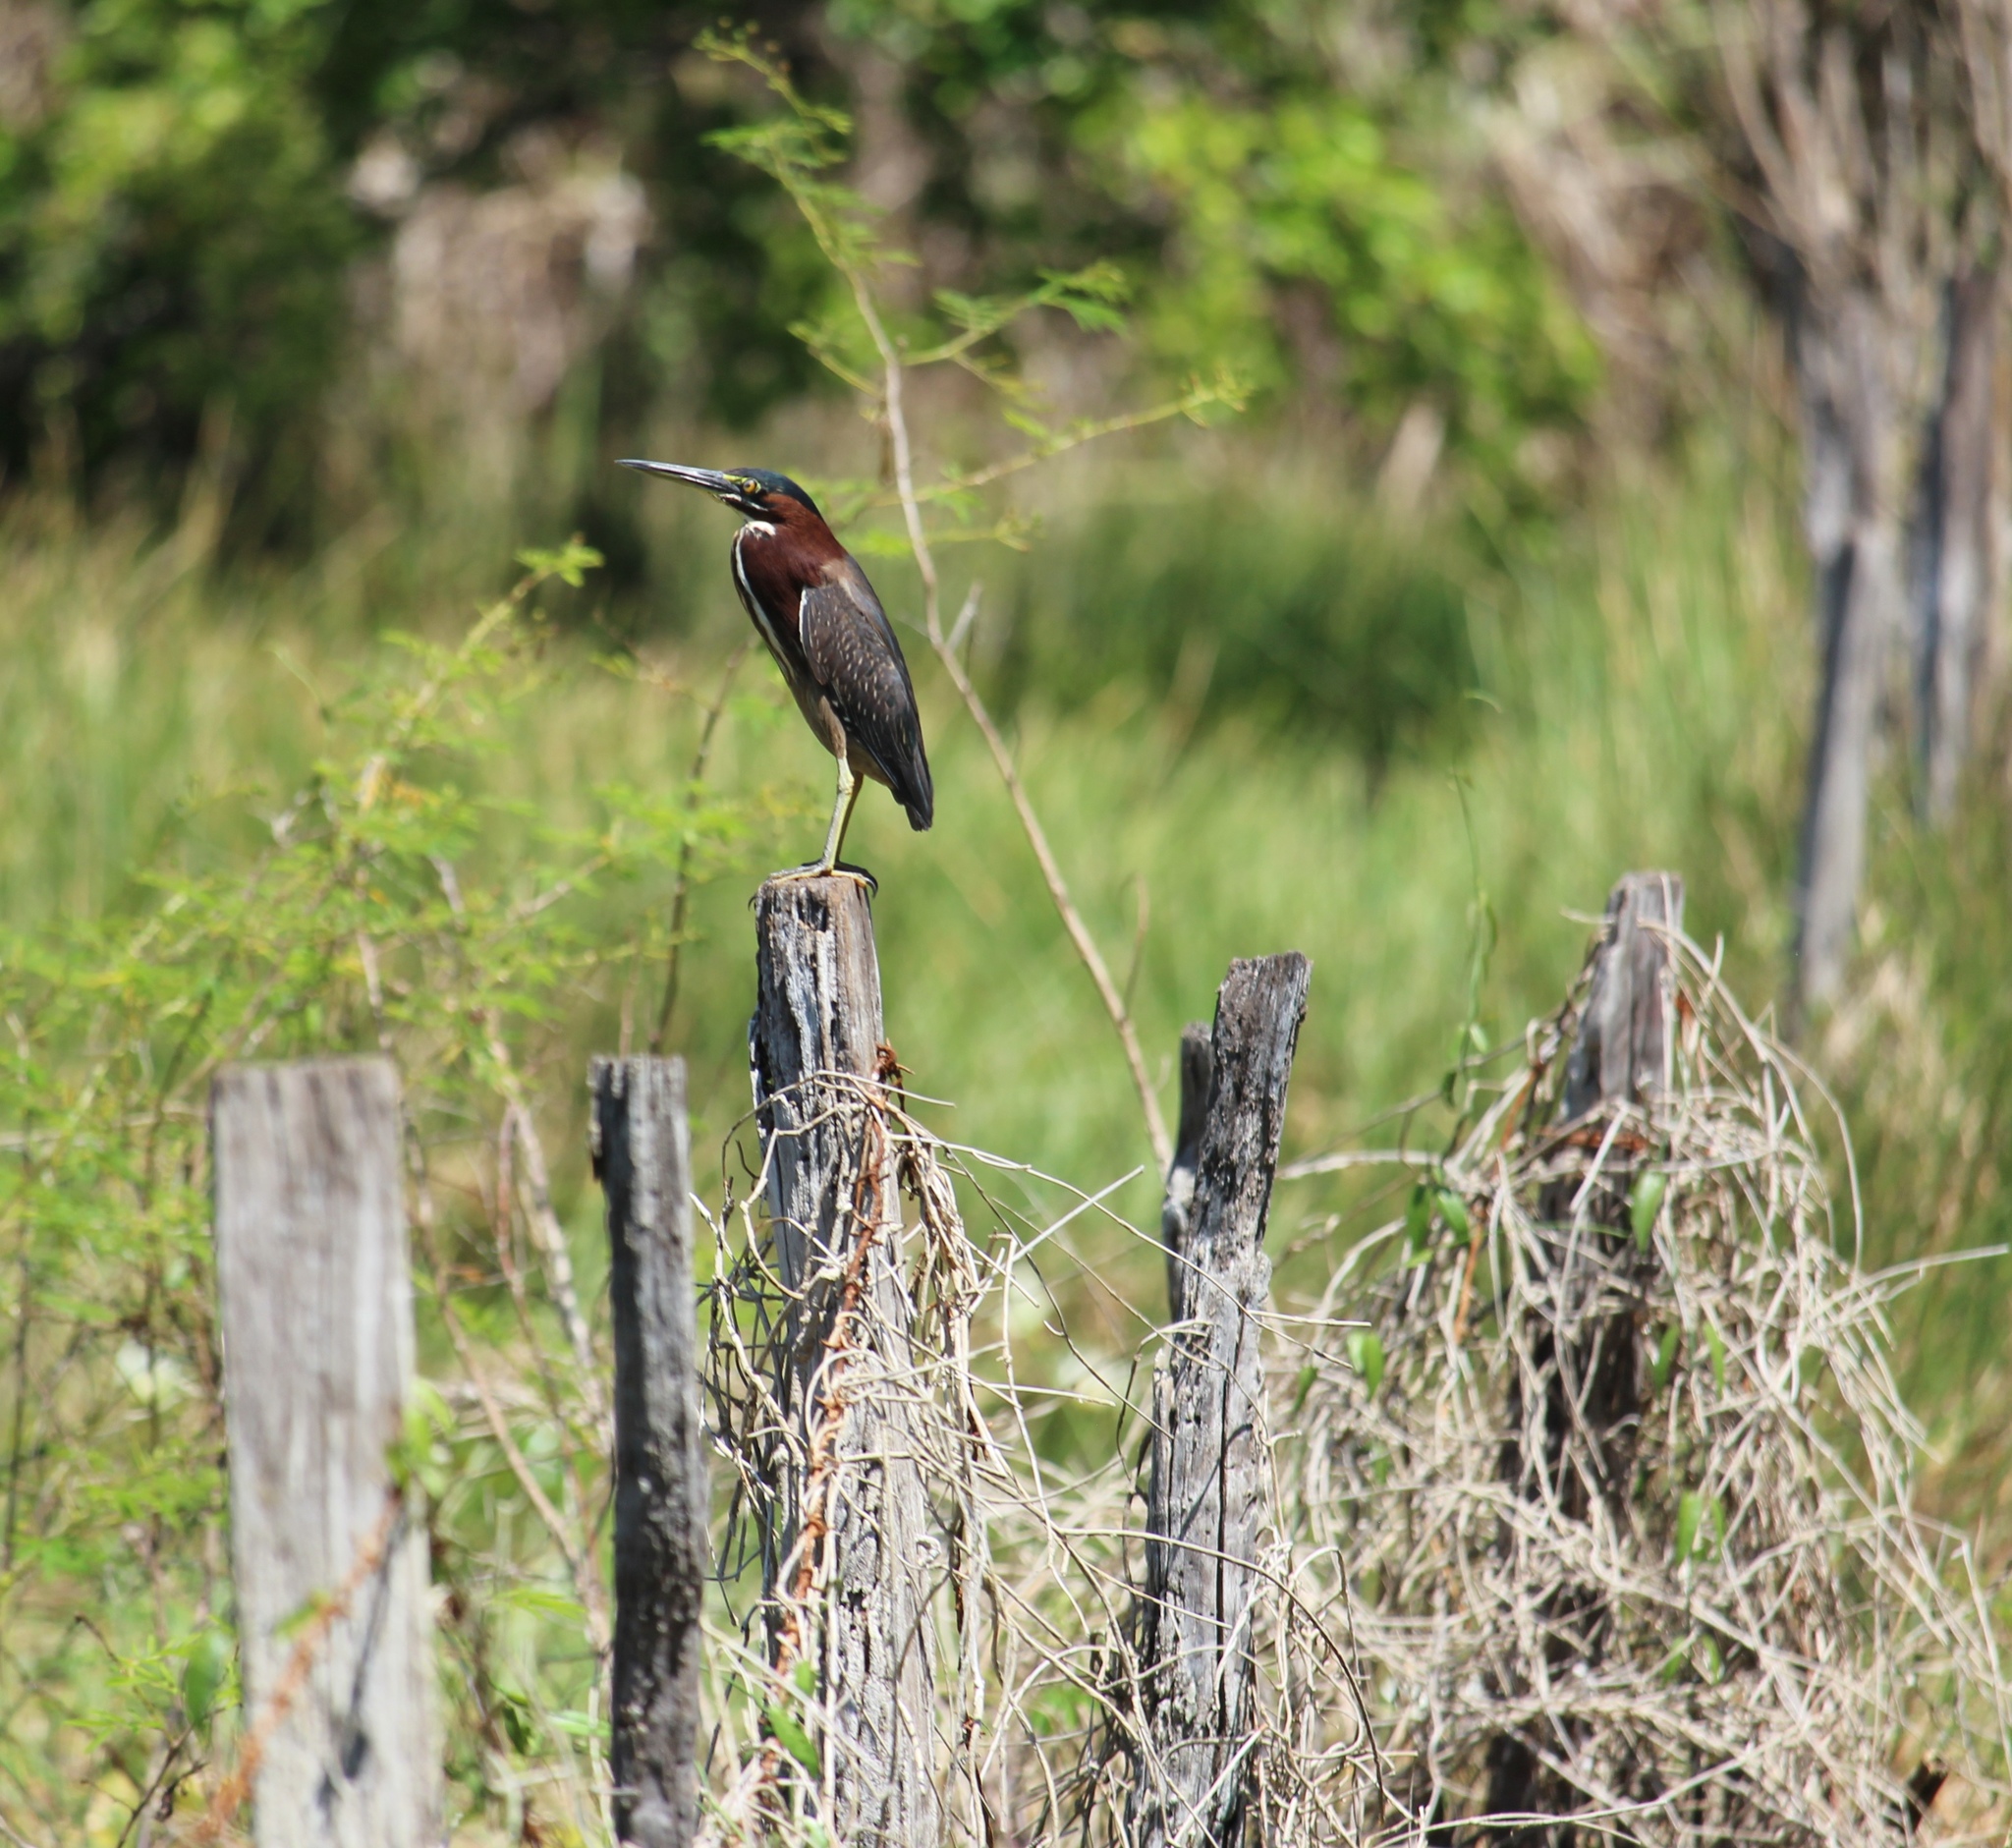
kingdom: Animalia
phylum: Chordata
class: Aves
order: Pelecaniformes
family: Ardeidae
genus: Butorides
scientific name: Butorides virescens
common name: Green heron
